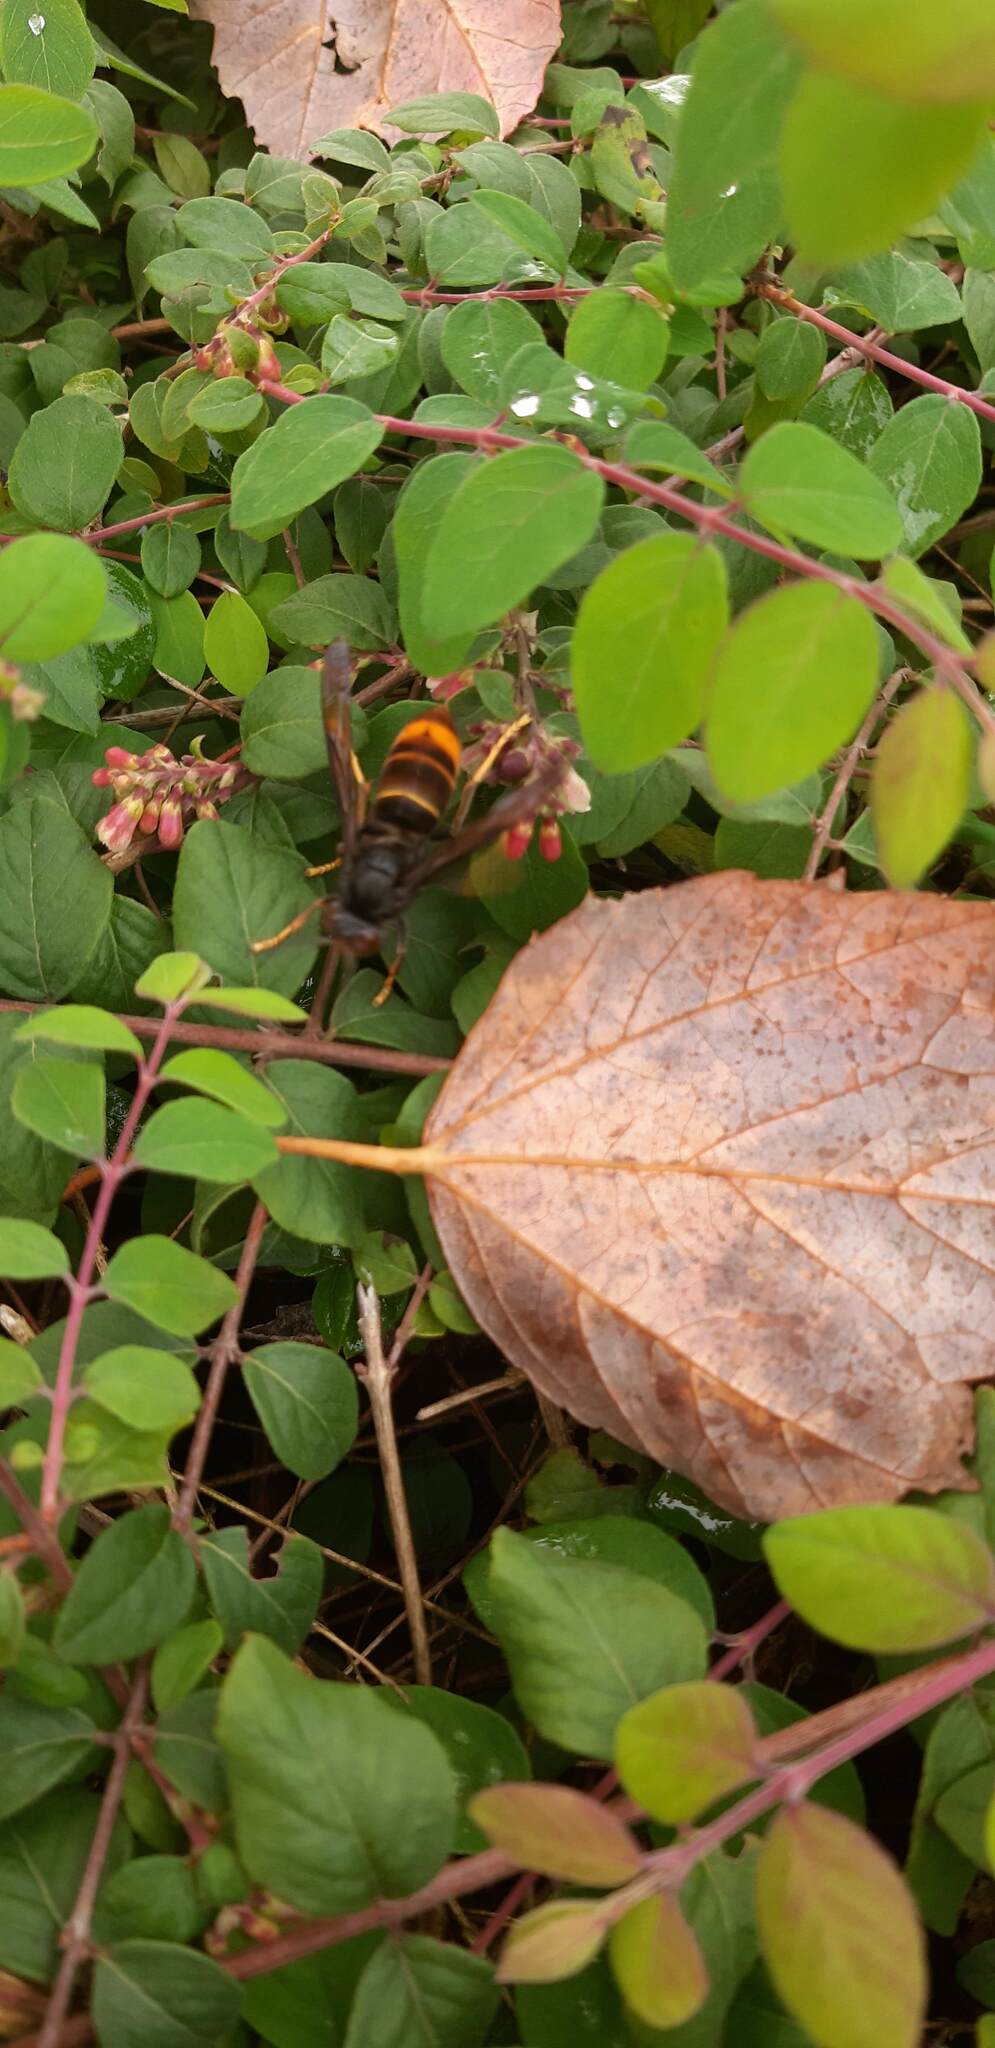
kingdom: Animalia
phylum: Arthropoda
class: Insecta
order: Hymenoptera
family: Vespidae
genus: Vespa
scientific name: Vespa velutina
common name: Asian hornet
